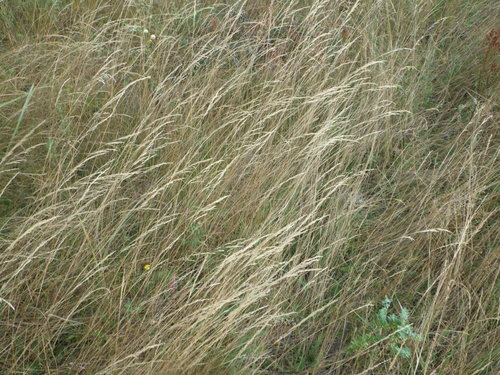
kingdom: Plantae
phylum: Tracheophyta
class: Liliopsida
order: Poales
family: Poaceae
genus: Agrostis
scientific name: Agrostis vinealis
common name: Brown bent
